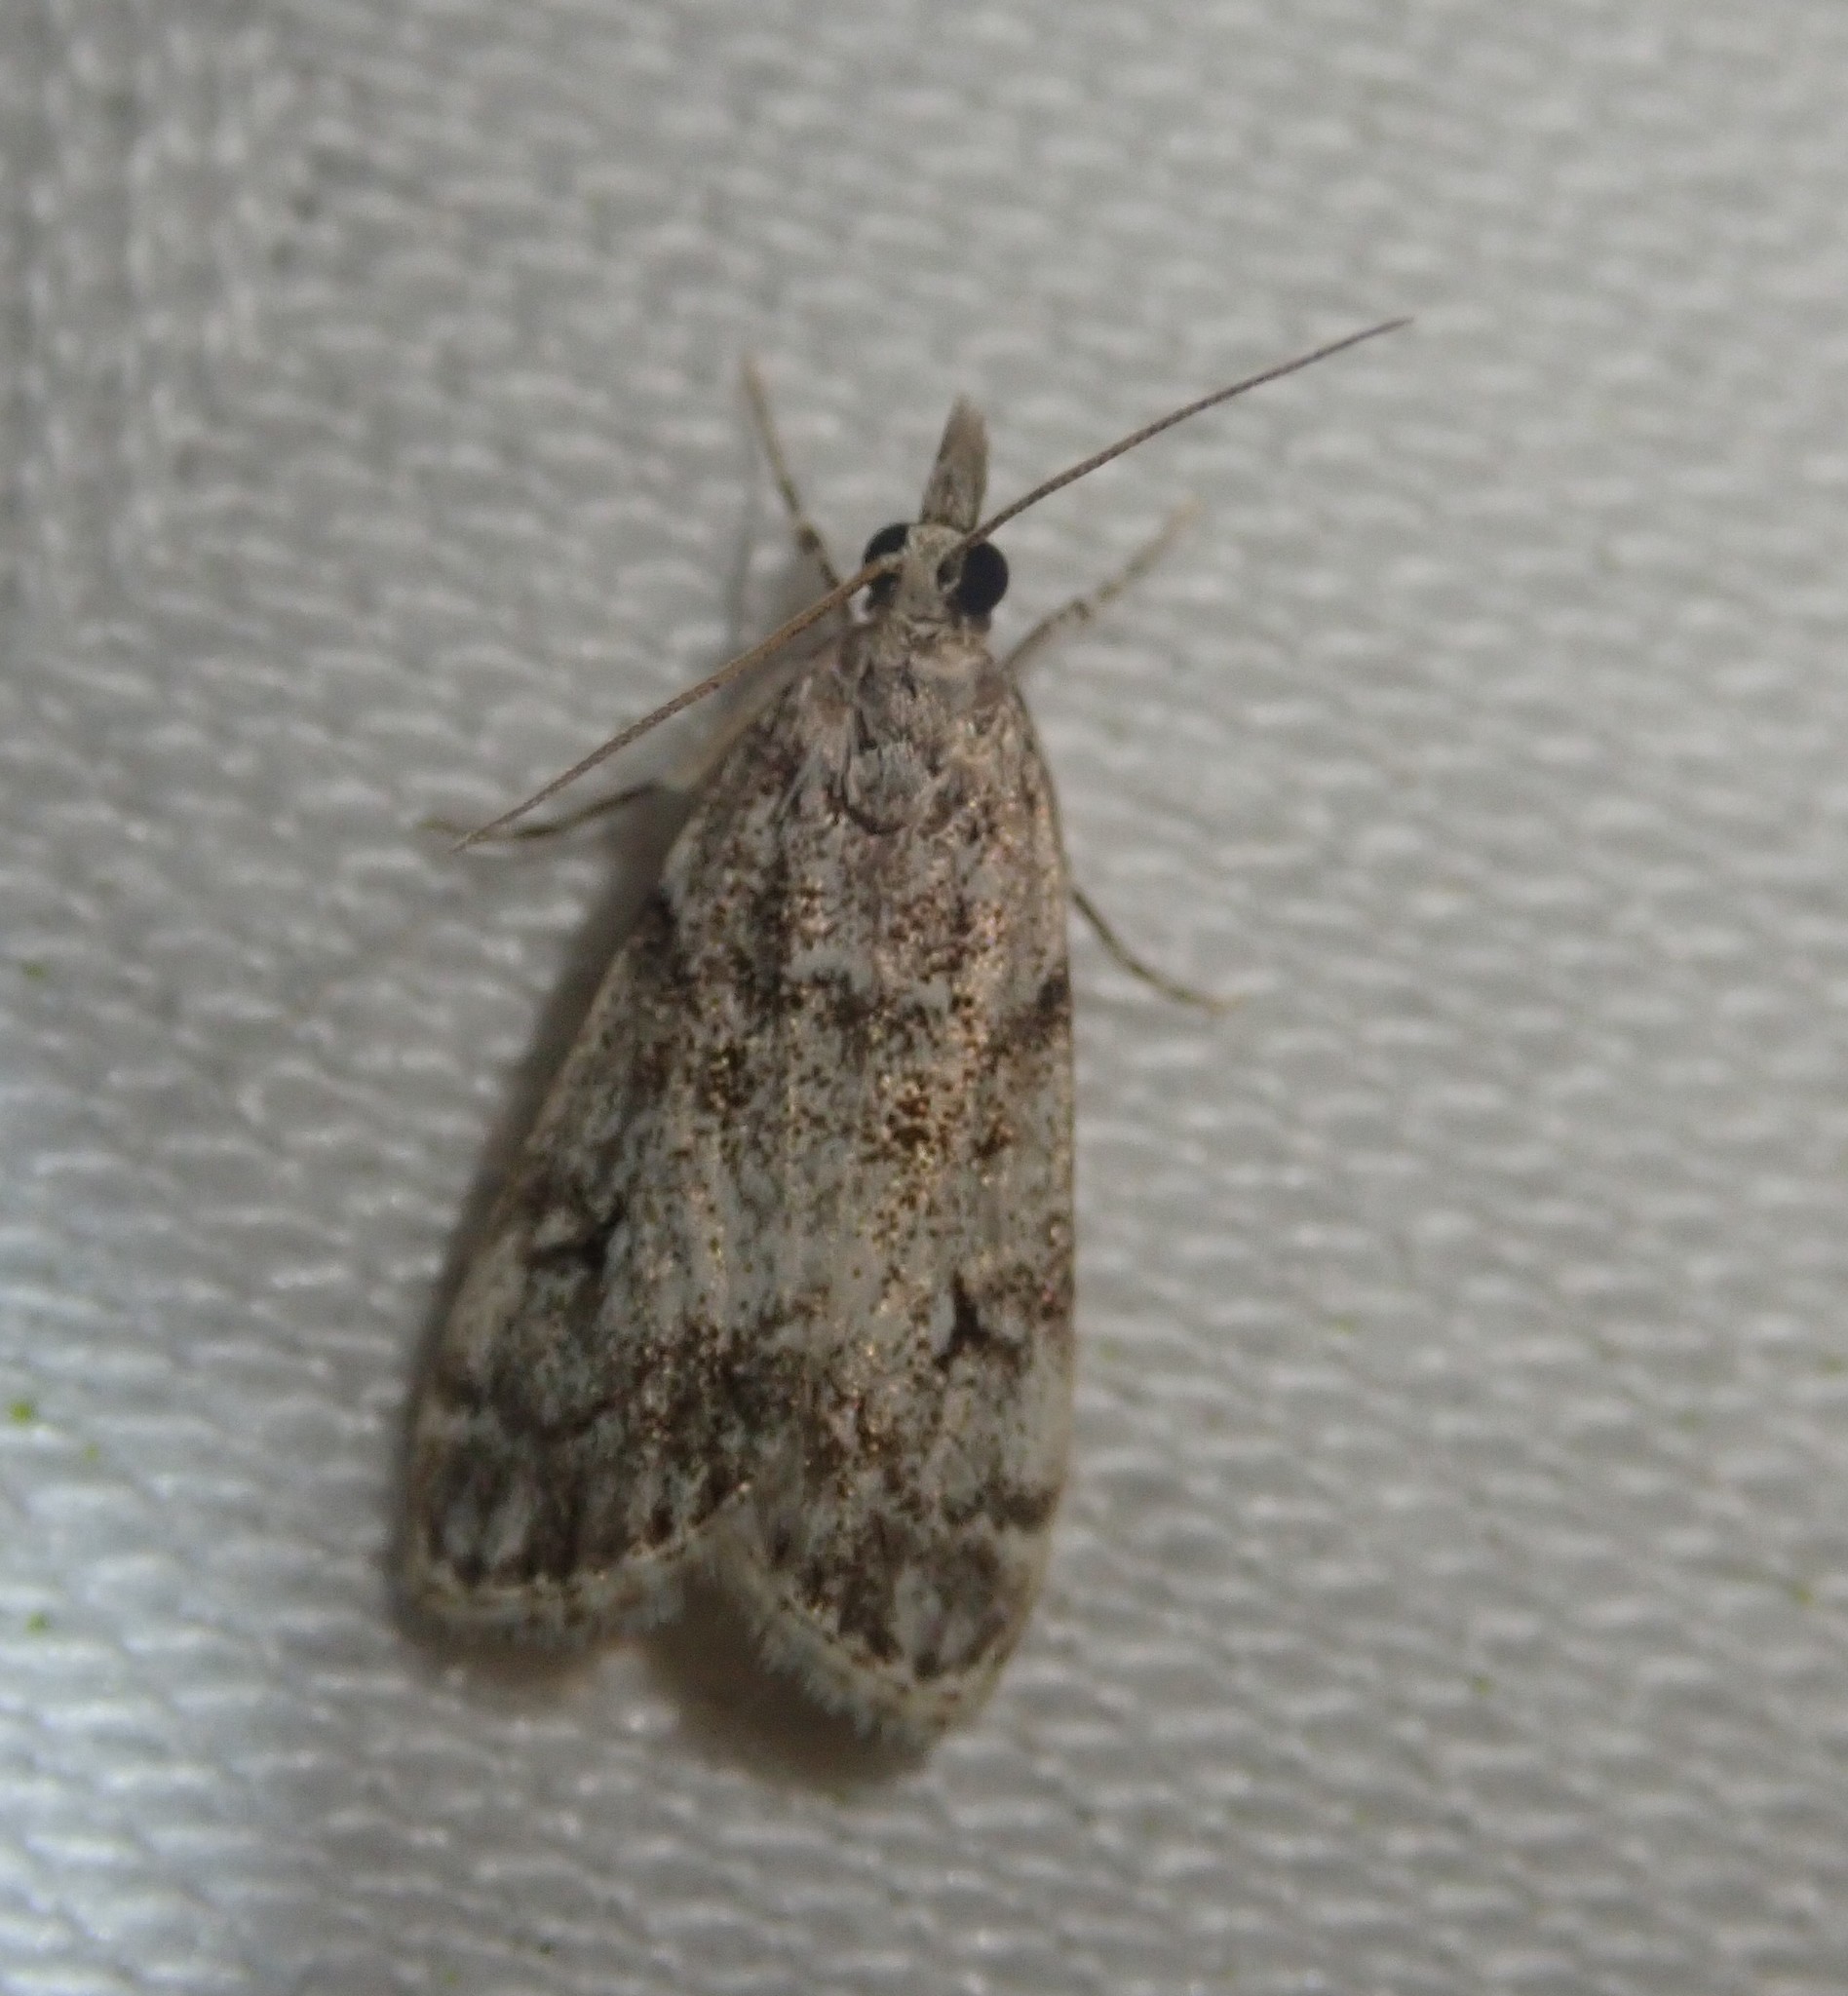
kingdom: Animalia
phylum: Arthropoda
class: Insecta
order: Lepidoptera
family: Crambidae
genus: Eudonia
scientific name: Eudonia lacustrata
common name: Little grey
